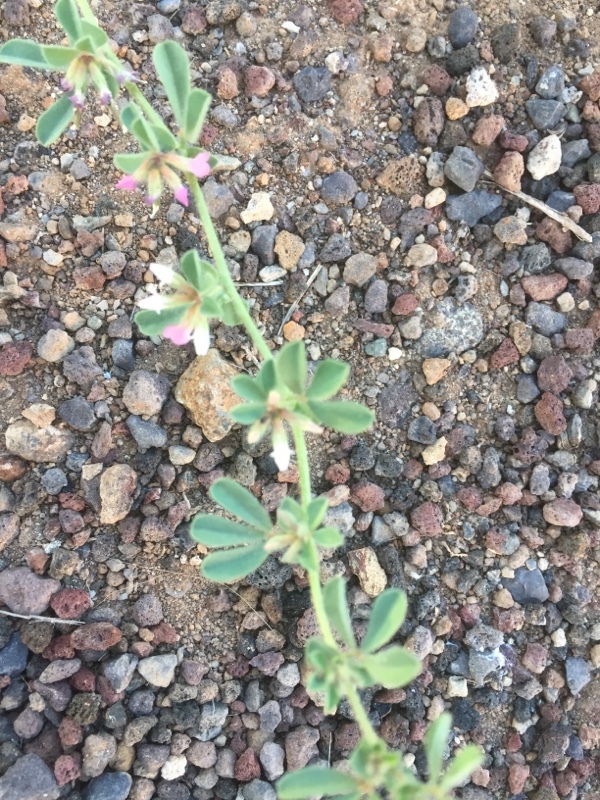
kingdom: Plantae
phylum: Tracheophyta
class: Magnoliopsida
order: Fabales
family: Fabaceae
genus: Lotus
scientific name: Lotus glinoides
